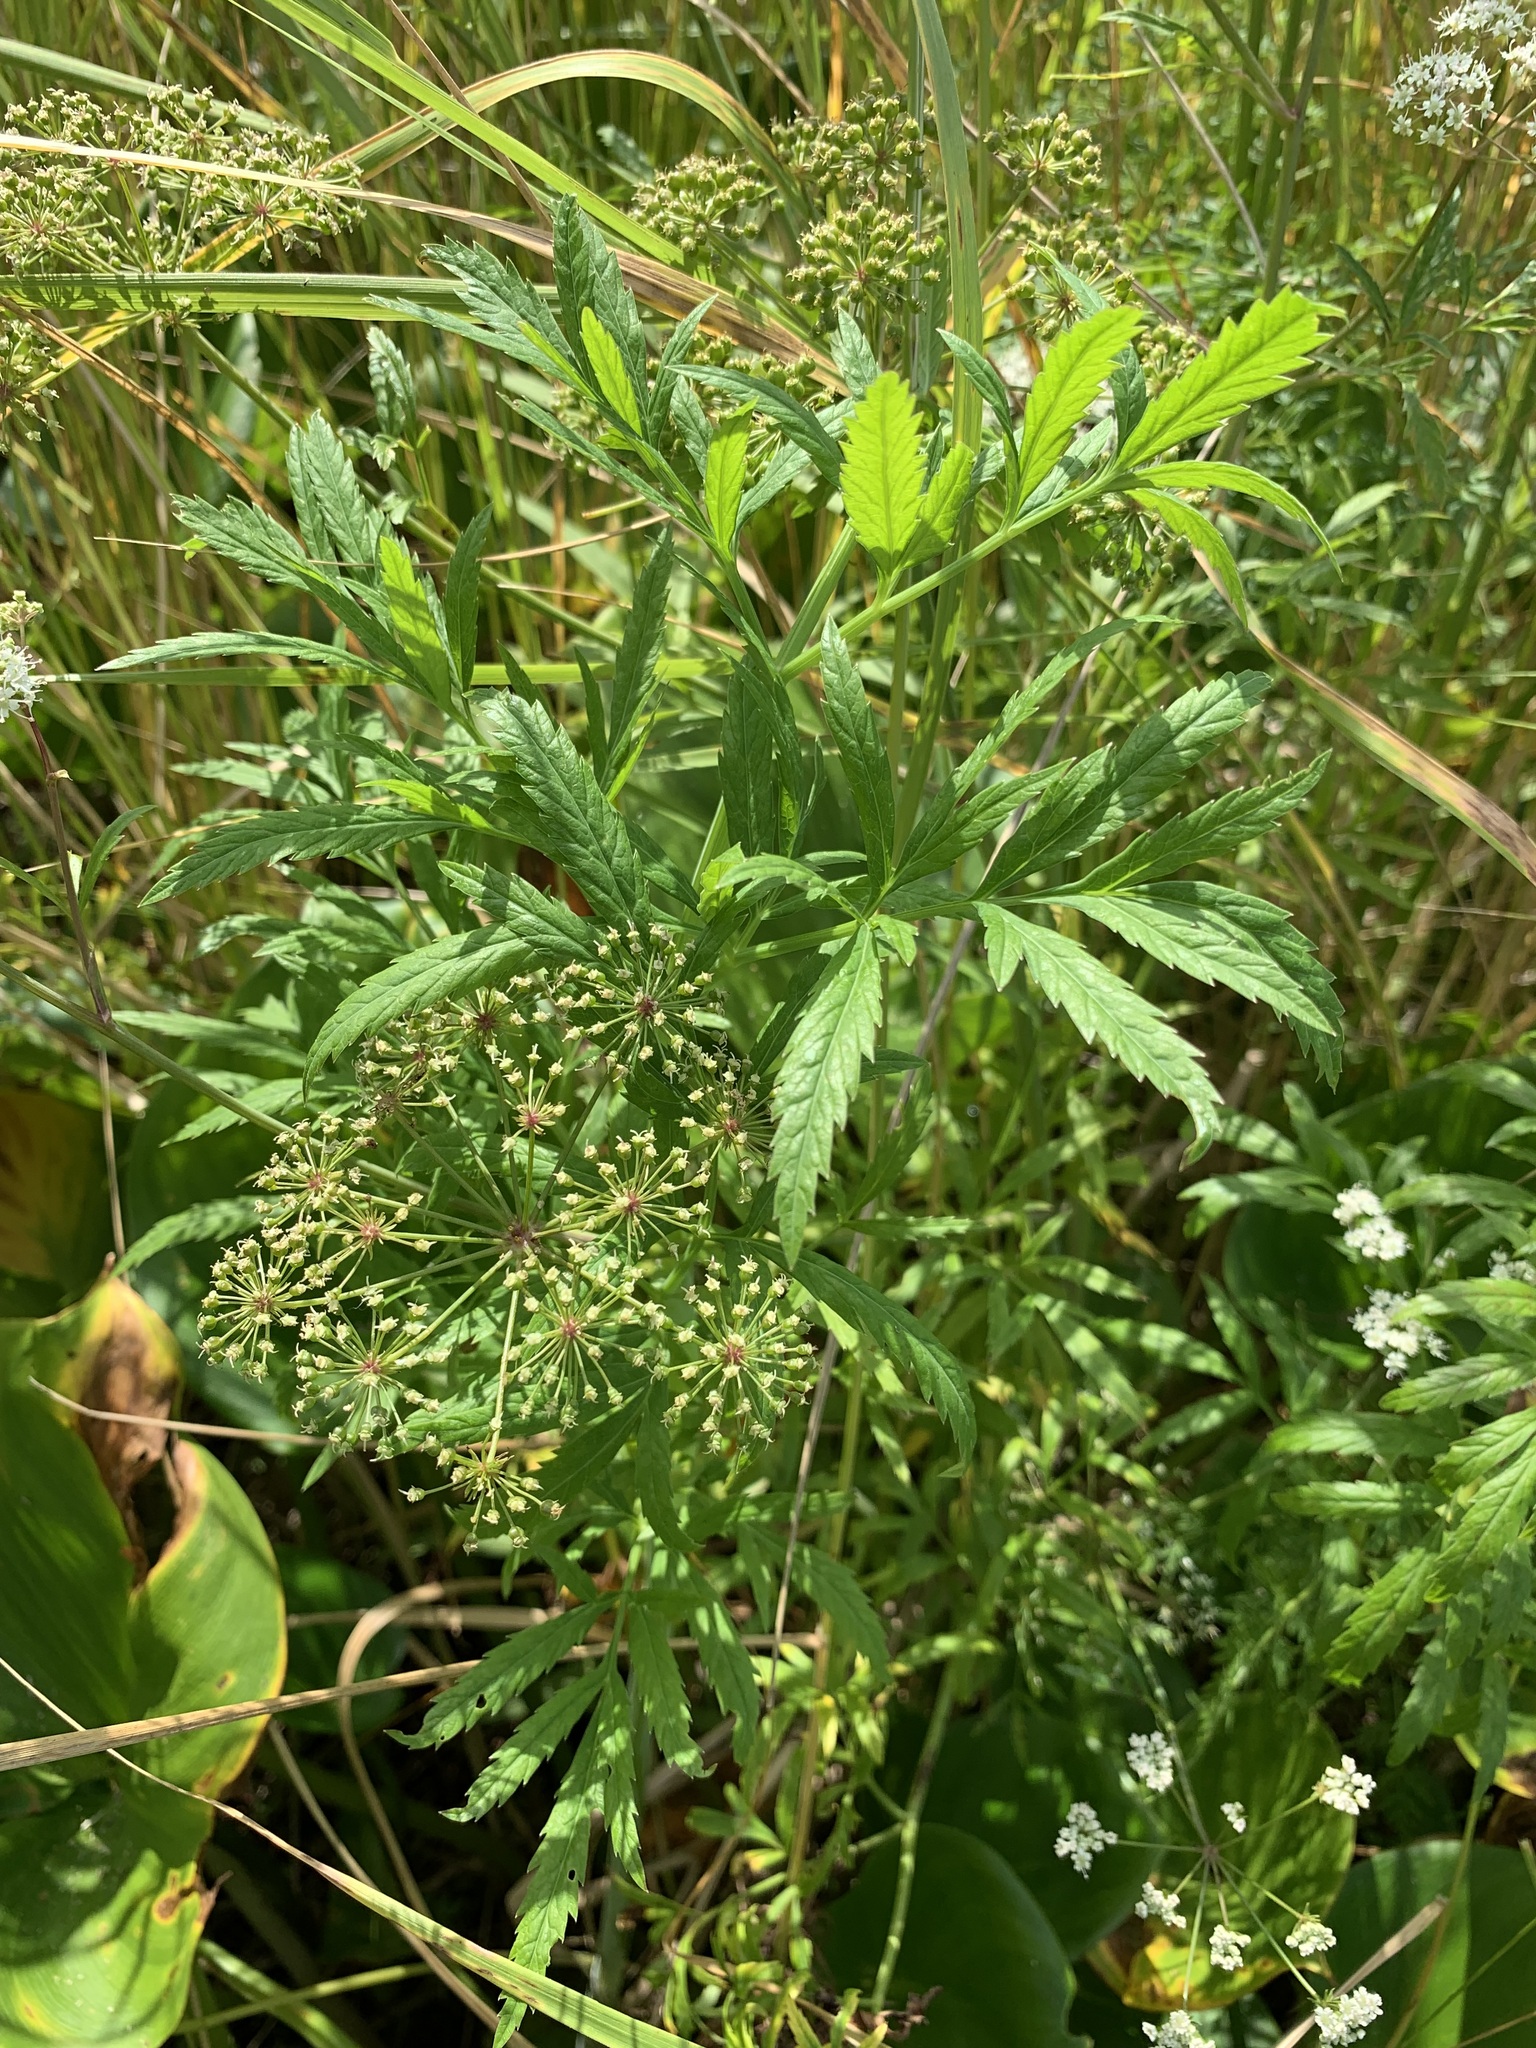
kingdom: Plantae
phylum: Tracheophyta
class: Magnoliopsida
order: Apiales
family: Apiaceae
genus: Cicuta
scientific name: Cicuta virosa
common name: Cowbane
